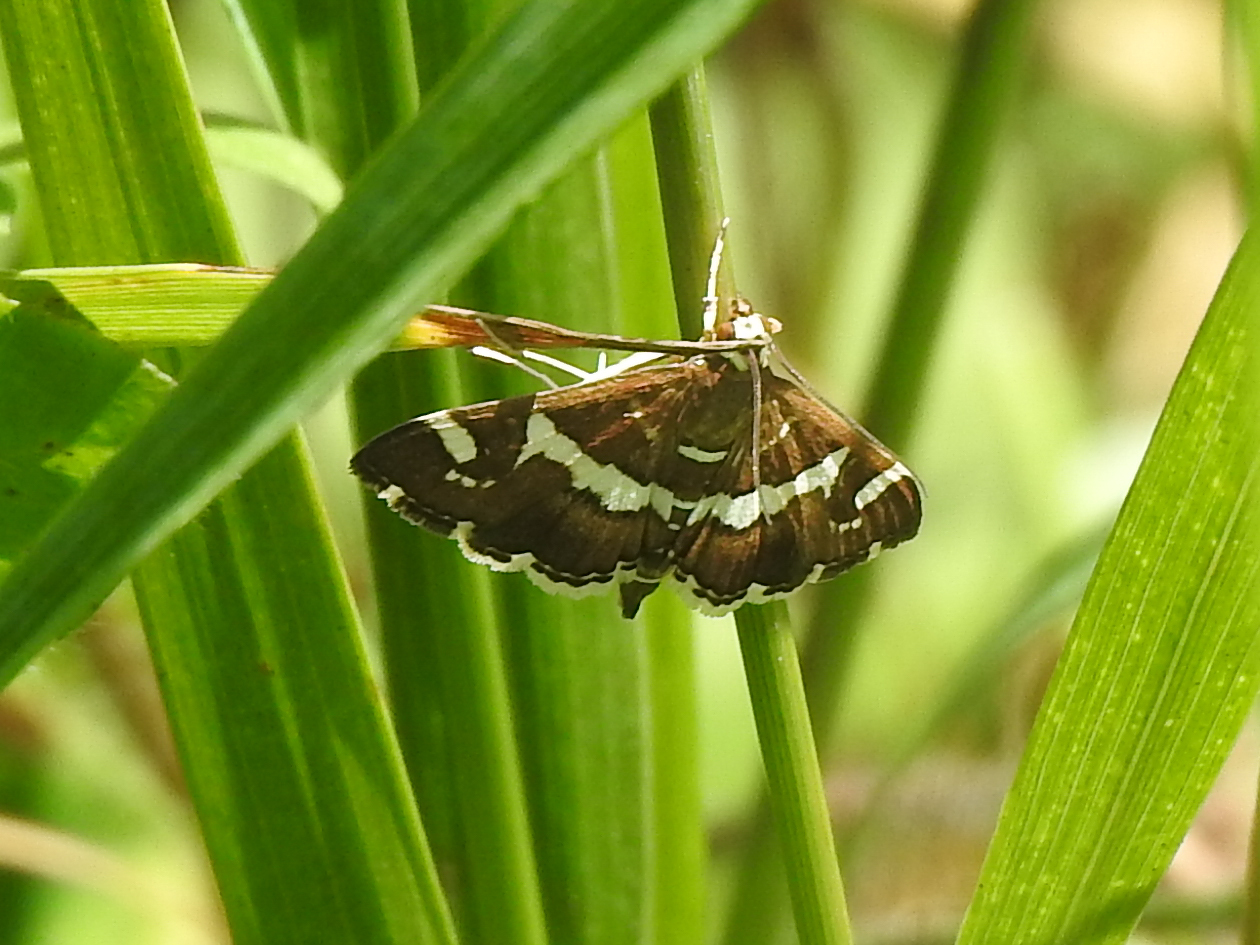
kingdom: Animalia
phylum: Arthropoda
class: Insecta
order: Lepidoptera
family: Crambidae
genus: Spoladea
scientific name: Spoladea recurvalis
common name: Beet webworm moth
